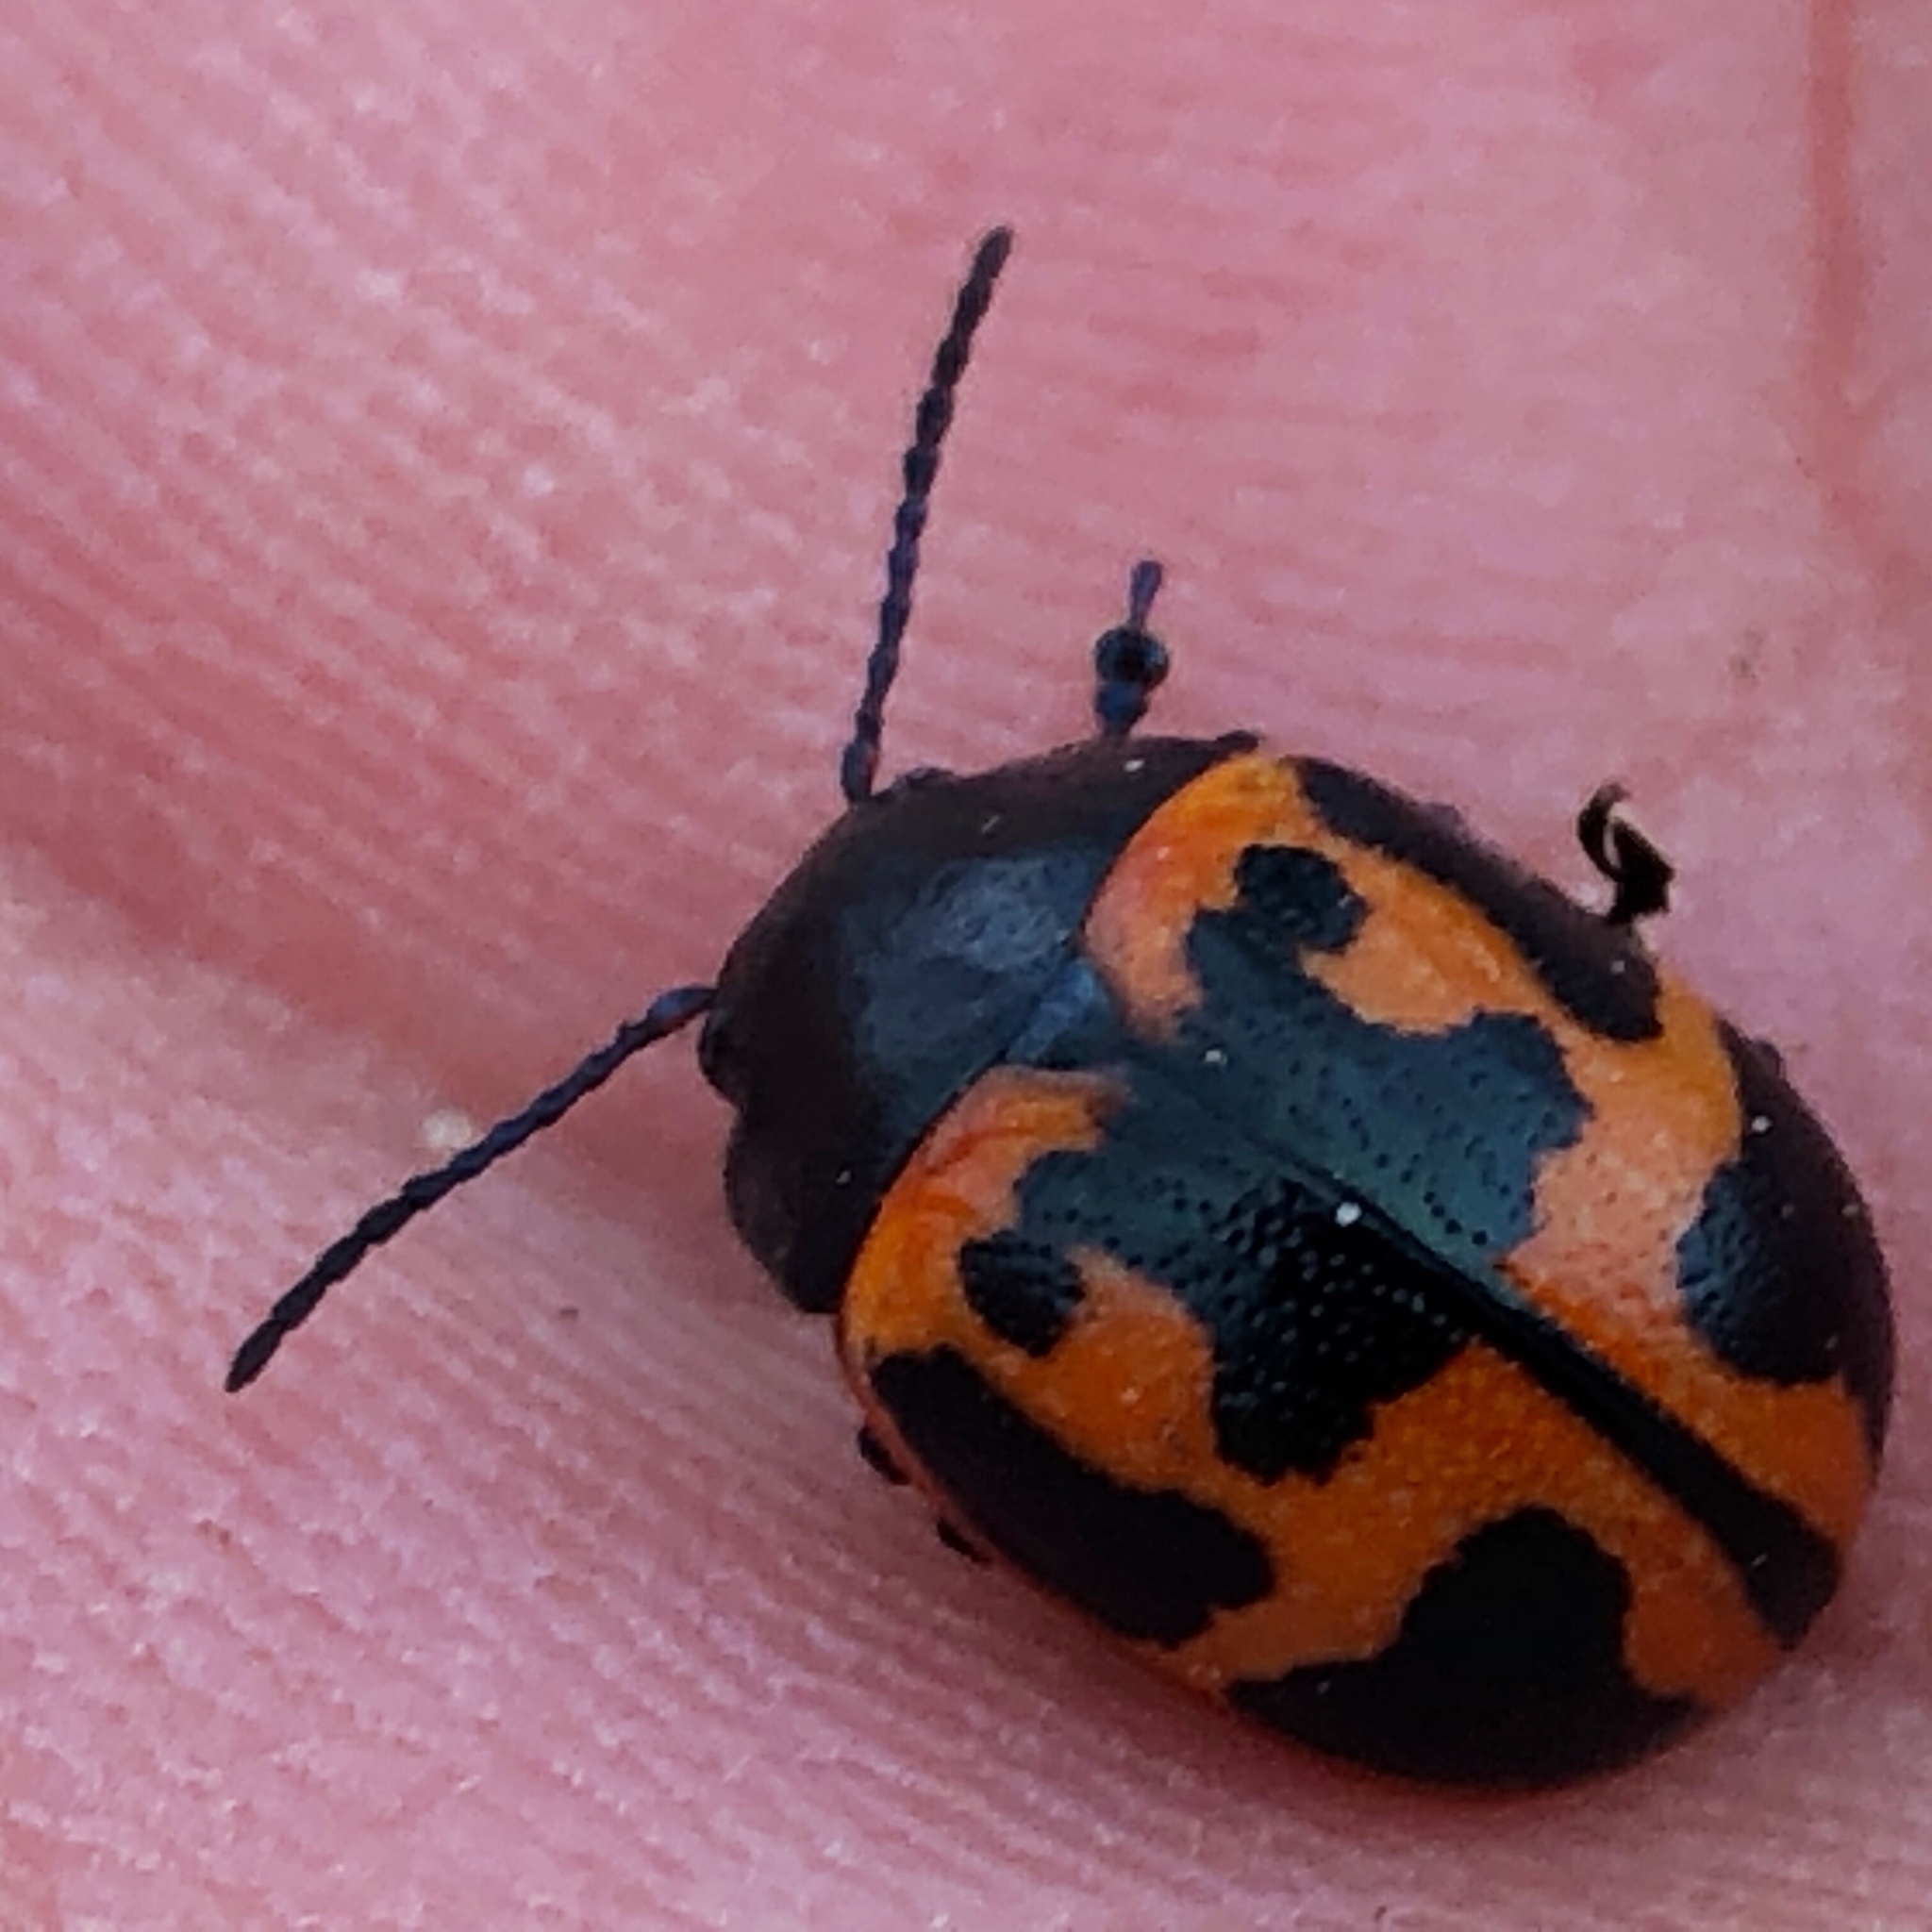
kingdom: Animalia
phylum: Arthropoda
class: Insecta
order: Coleoptera
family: Chrysomelidae
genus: Labidomera
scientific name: Labidomera clivicollis
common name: Swamp milkweed leaf beetle
